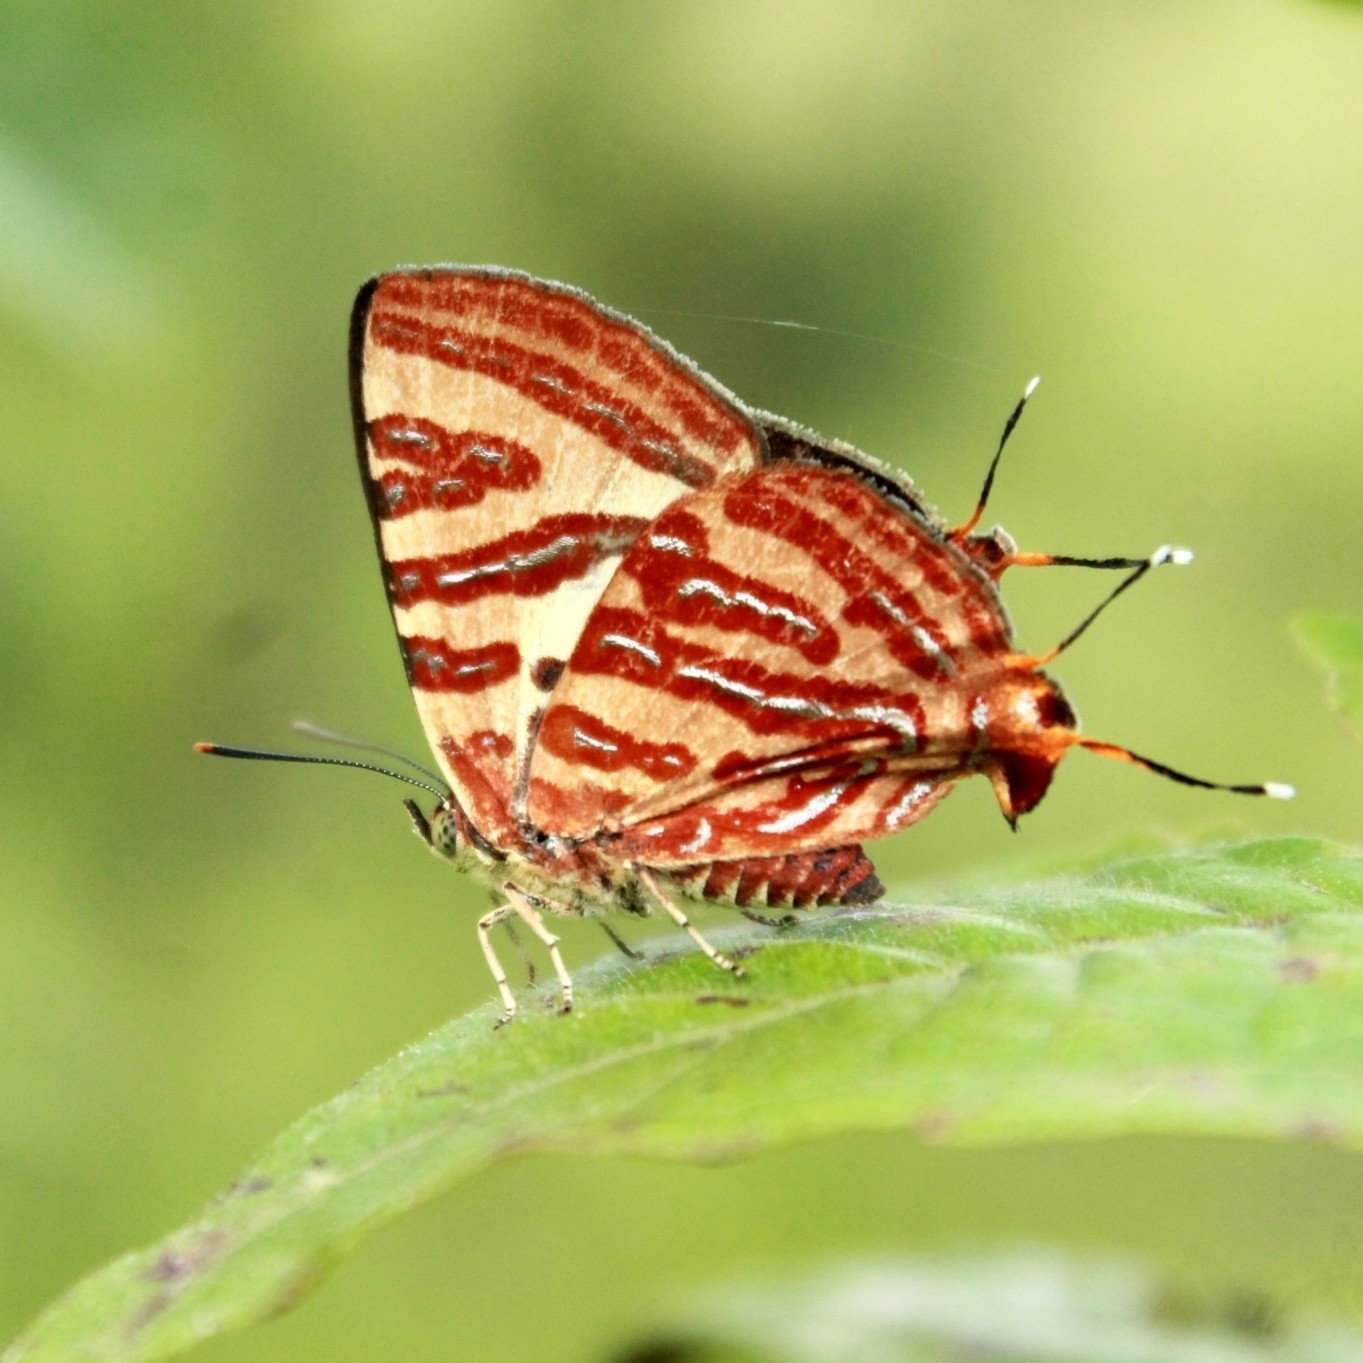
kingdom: Animalia
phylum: Arthropoda
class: Insecta
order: Lepidoptera
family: Lycaenidae
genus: Cigaritis
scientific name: Cigaritis lohita
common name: Long-banded silverline
